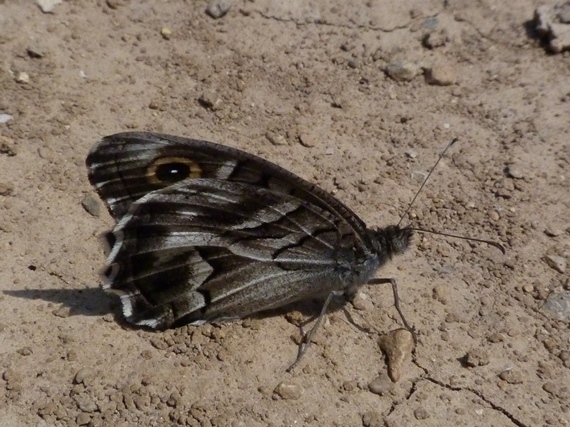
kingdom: Animalia
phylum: Arthropoda
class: Insecta
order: Lepidoptera
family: Nymphalidae
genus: Hipparchia
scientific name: Hipparchia fidia
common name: Striped grayling
